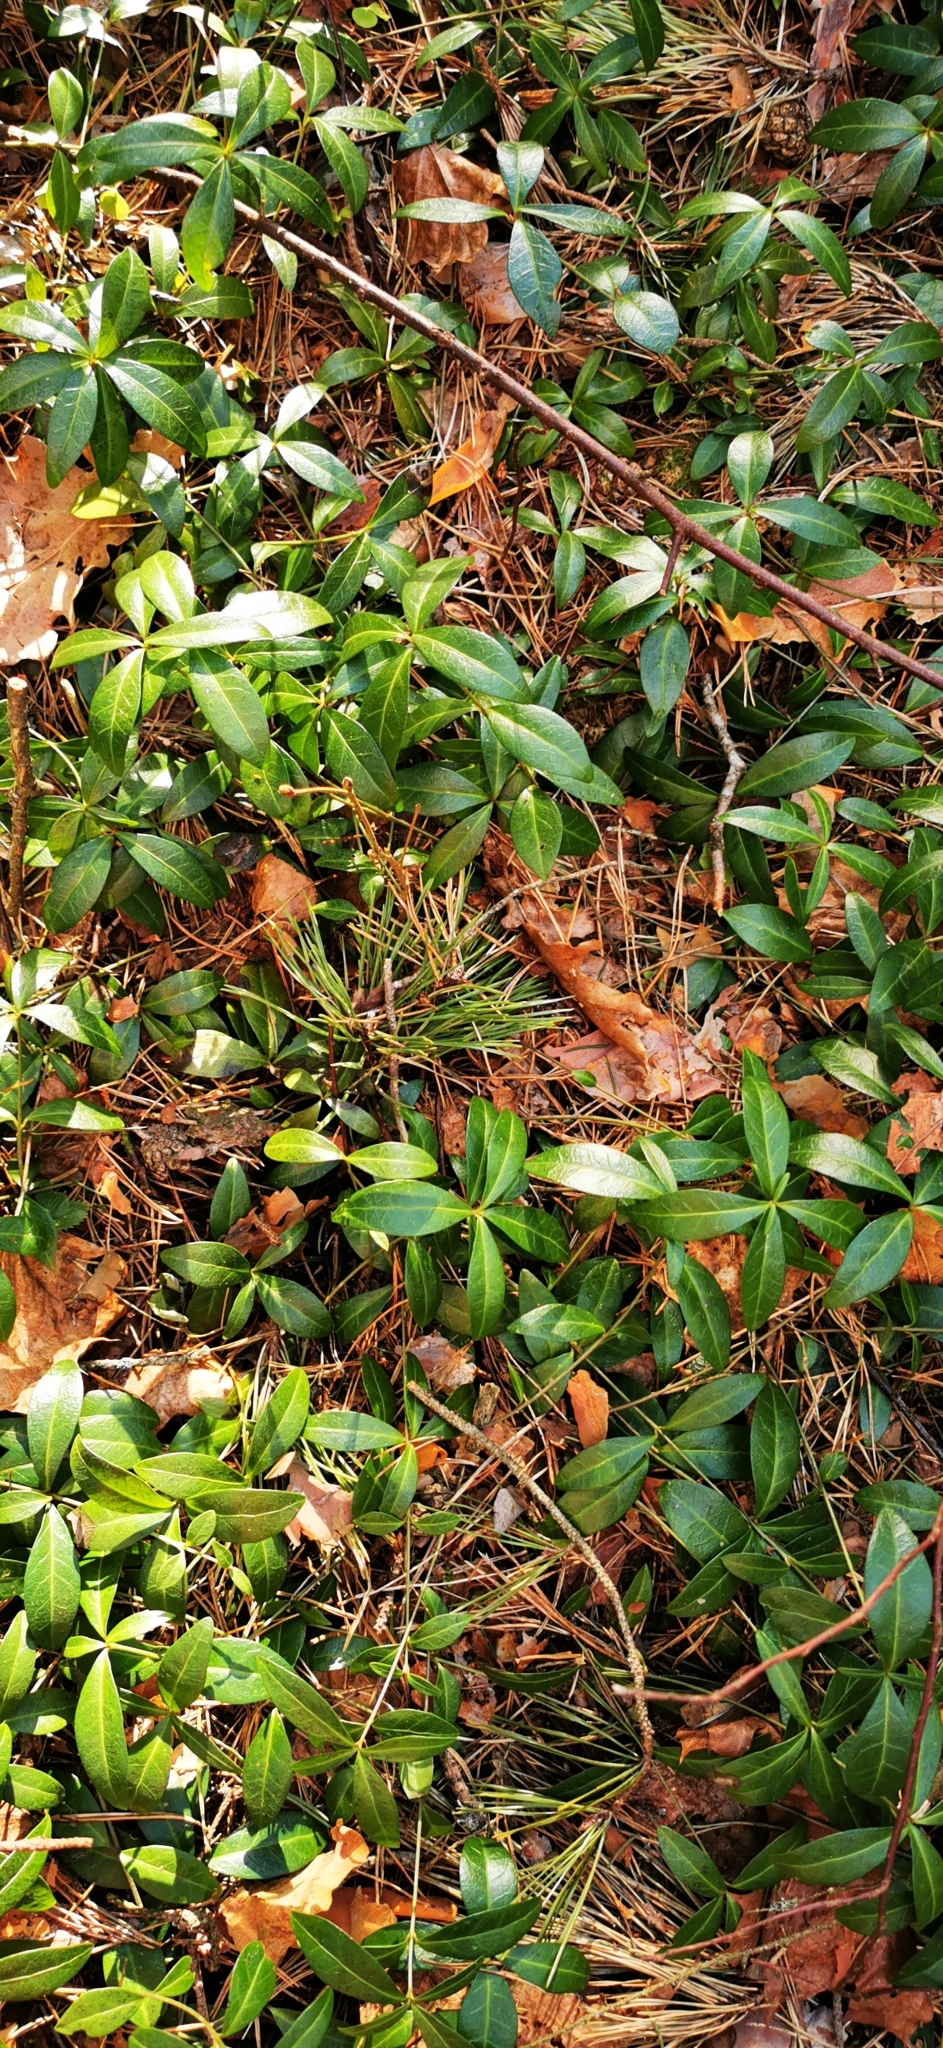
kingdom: Plantae
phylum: Tracheophyta
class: Magnoliopsida
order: Gentianales
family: Apocynaceae
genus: Vinca
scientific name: Vinca minor
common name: Lesser periwinkle
